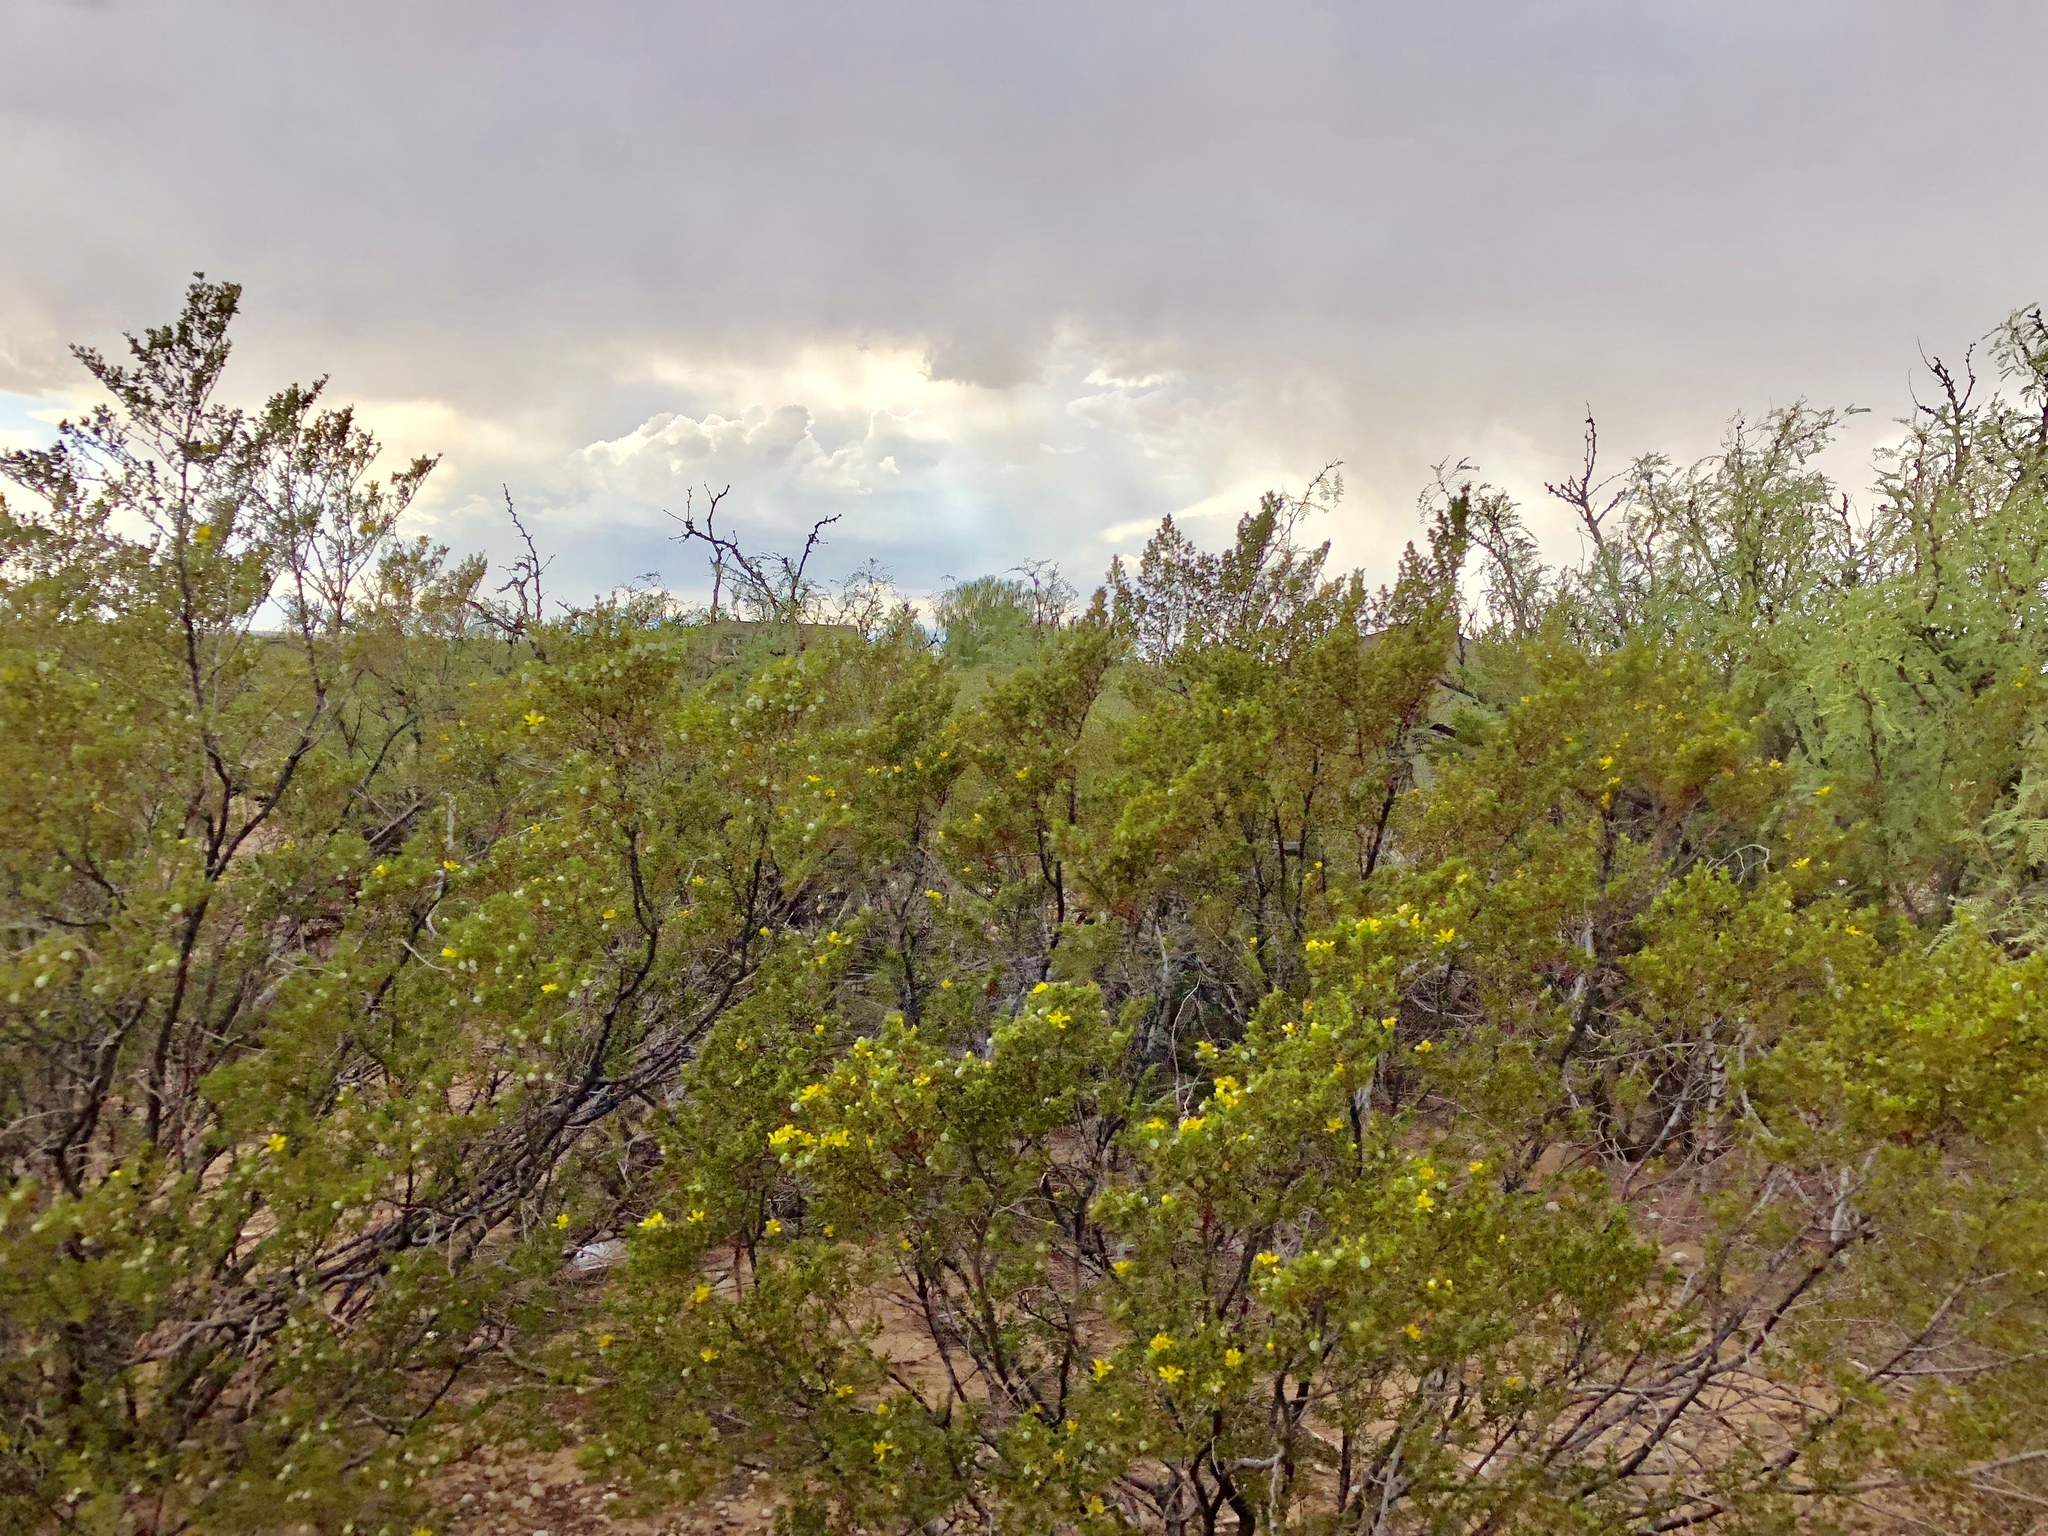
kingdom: Plantae
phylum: Tracheophyta
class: Magnoliopsida
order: Zygophyllales
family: Zygophyllaceae
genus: Larrea
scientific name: Larrea tridentata
